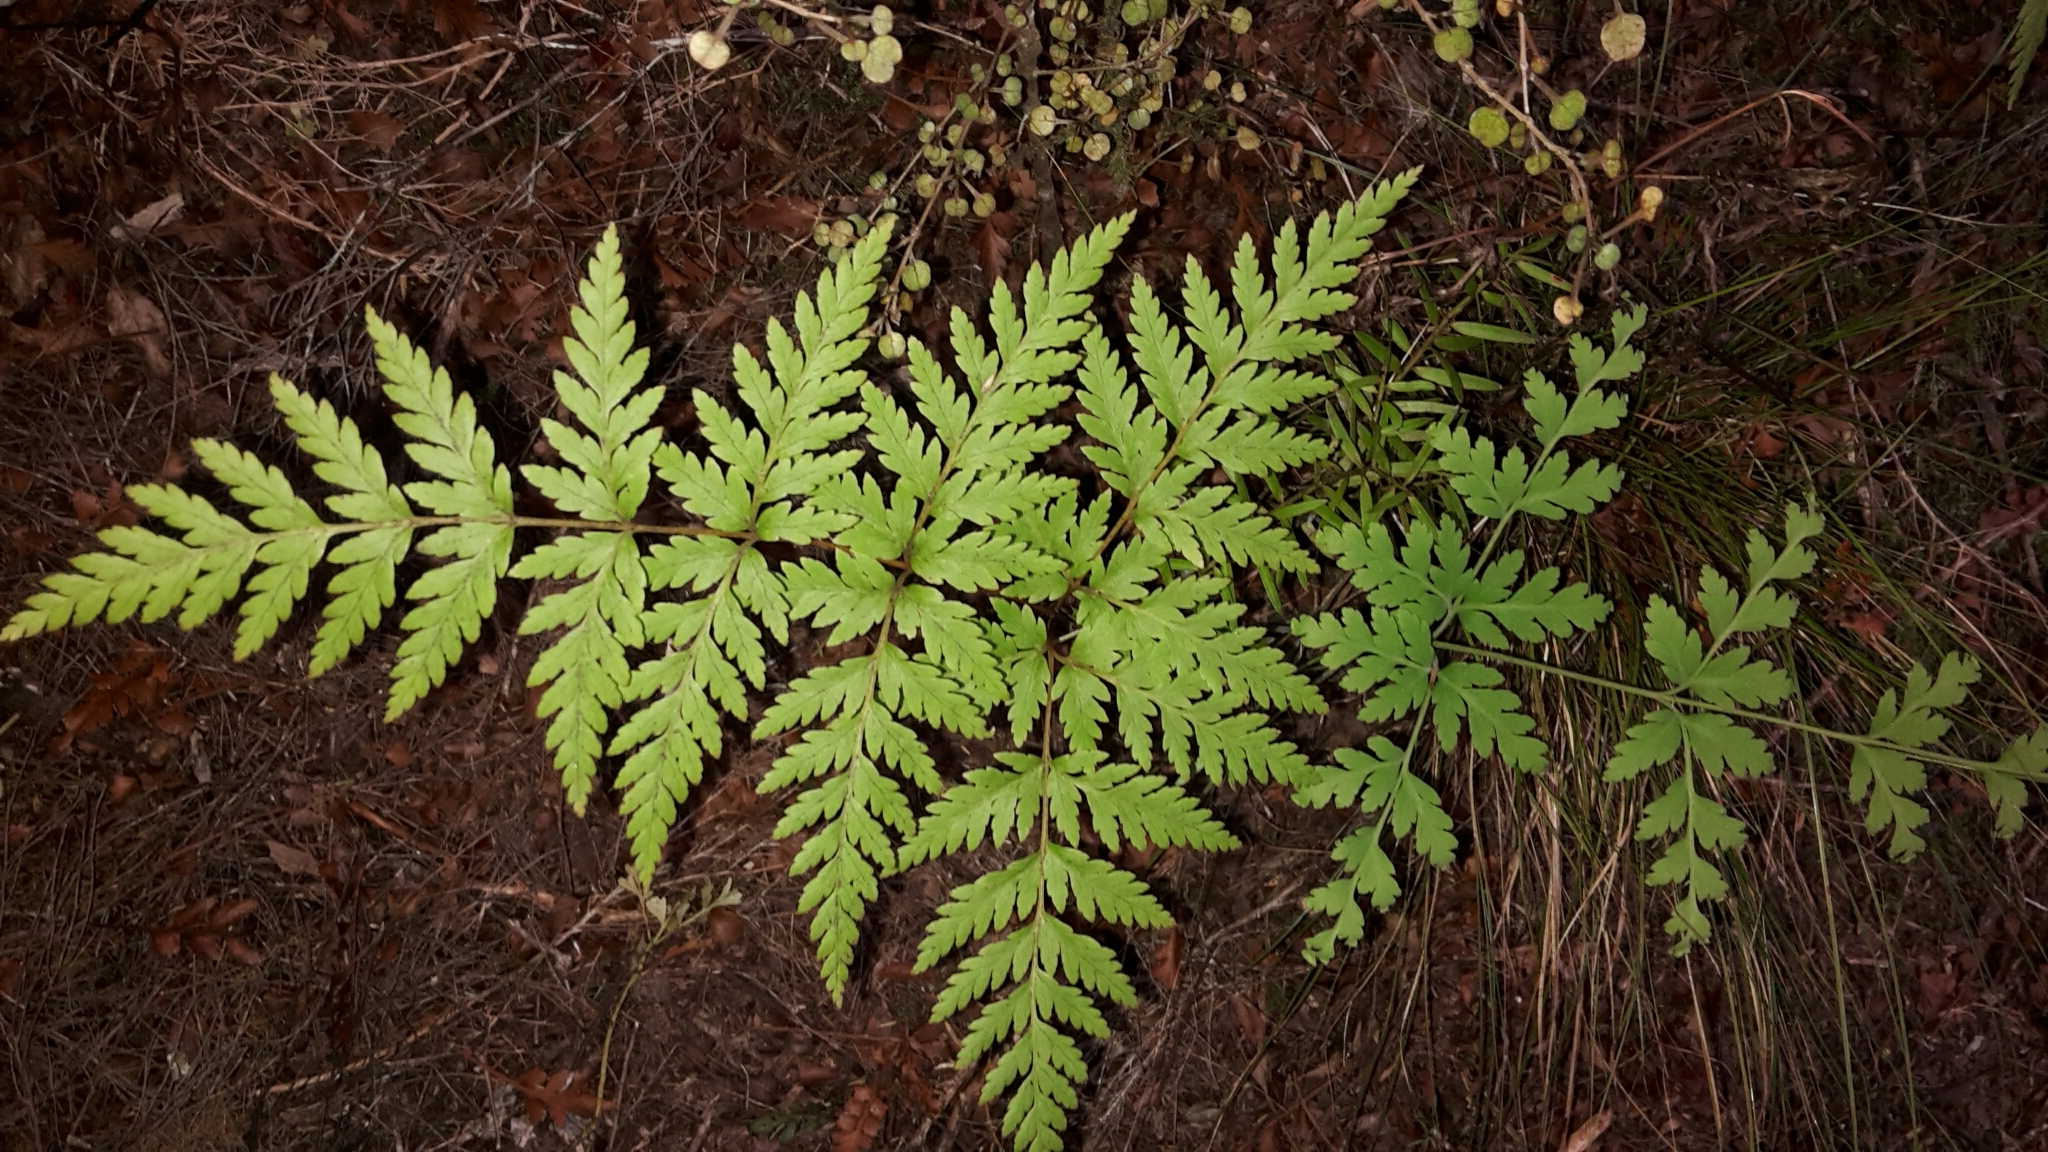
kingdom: Plantae
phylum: Tracheophyta
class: Polypodiopsida
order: Cyatheales
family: Loxsomataceae
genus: Loxsoma
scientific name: Loxsoma cunninghamii
